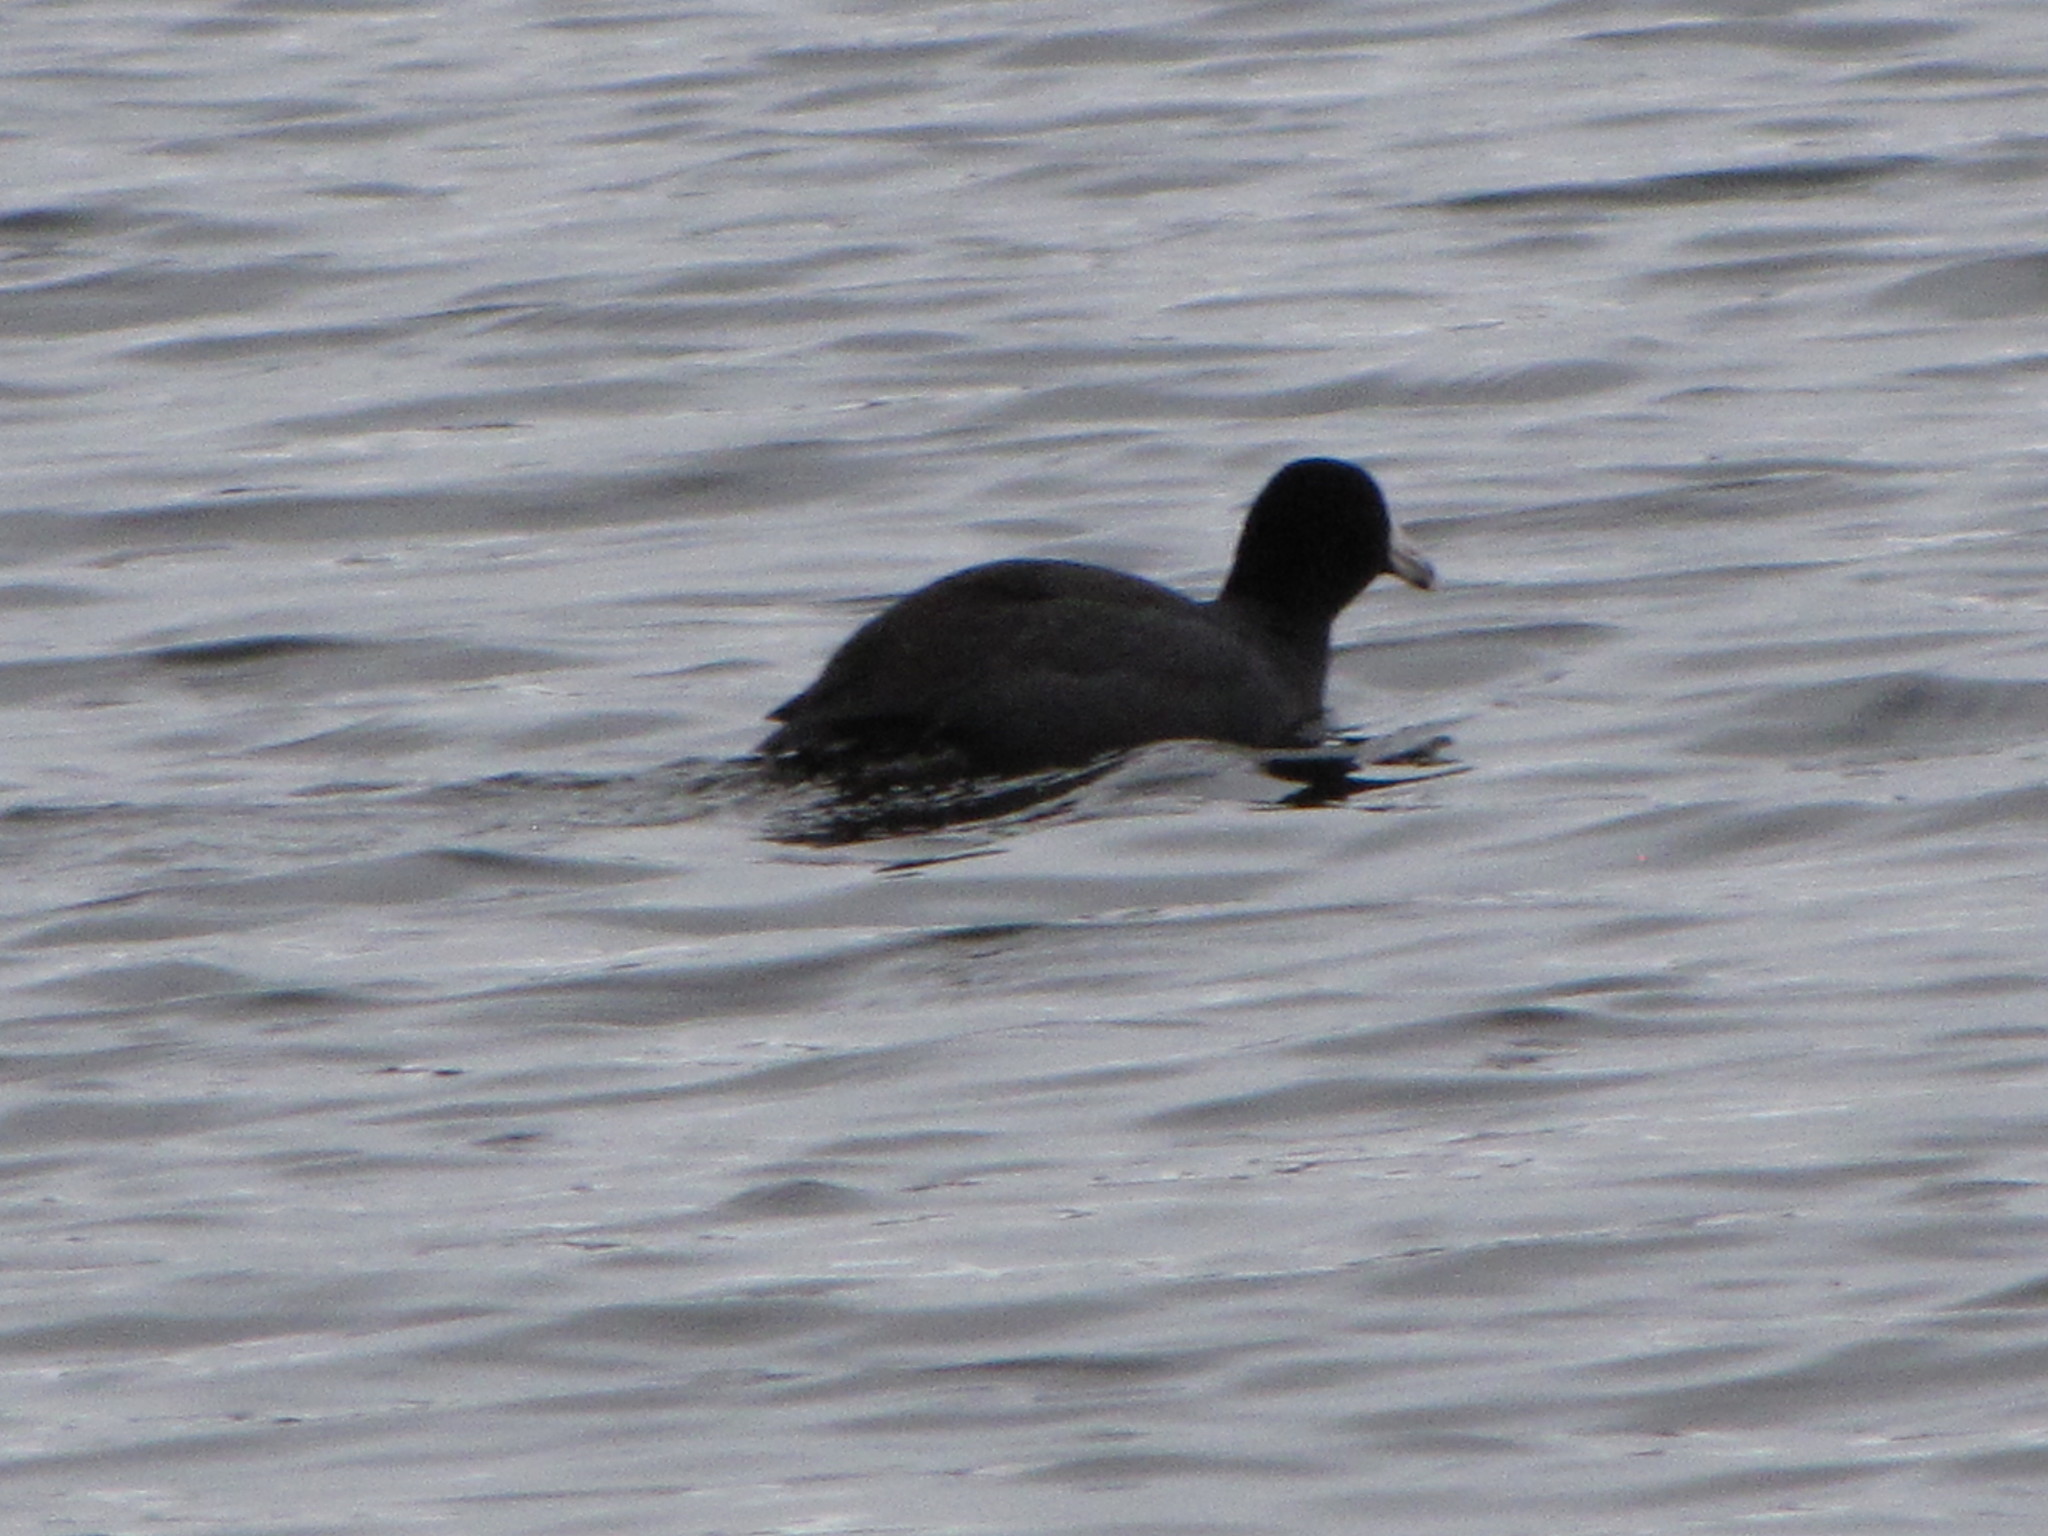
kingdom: Animalia
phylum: Chordata
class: Aves
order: Gruiformes
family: Rallidae
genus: Fulica
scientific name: Fulica americana
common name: American coot
